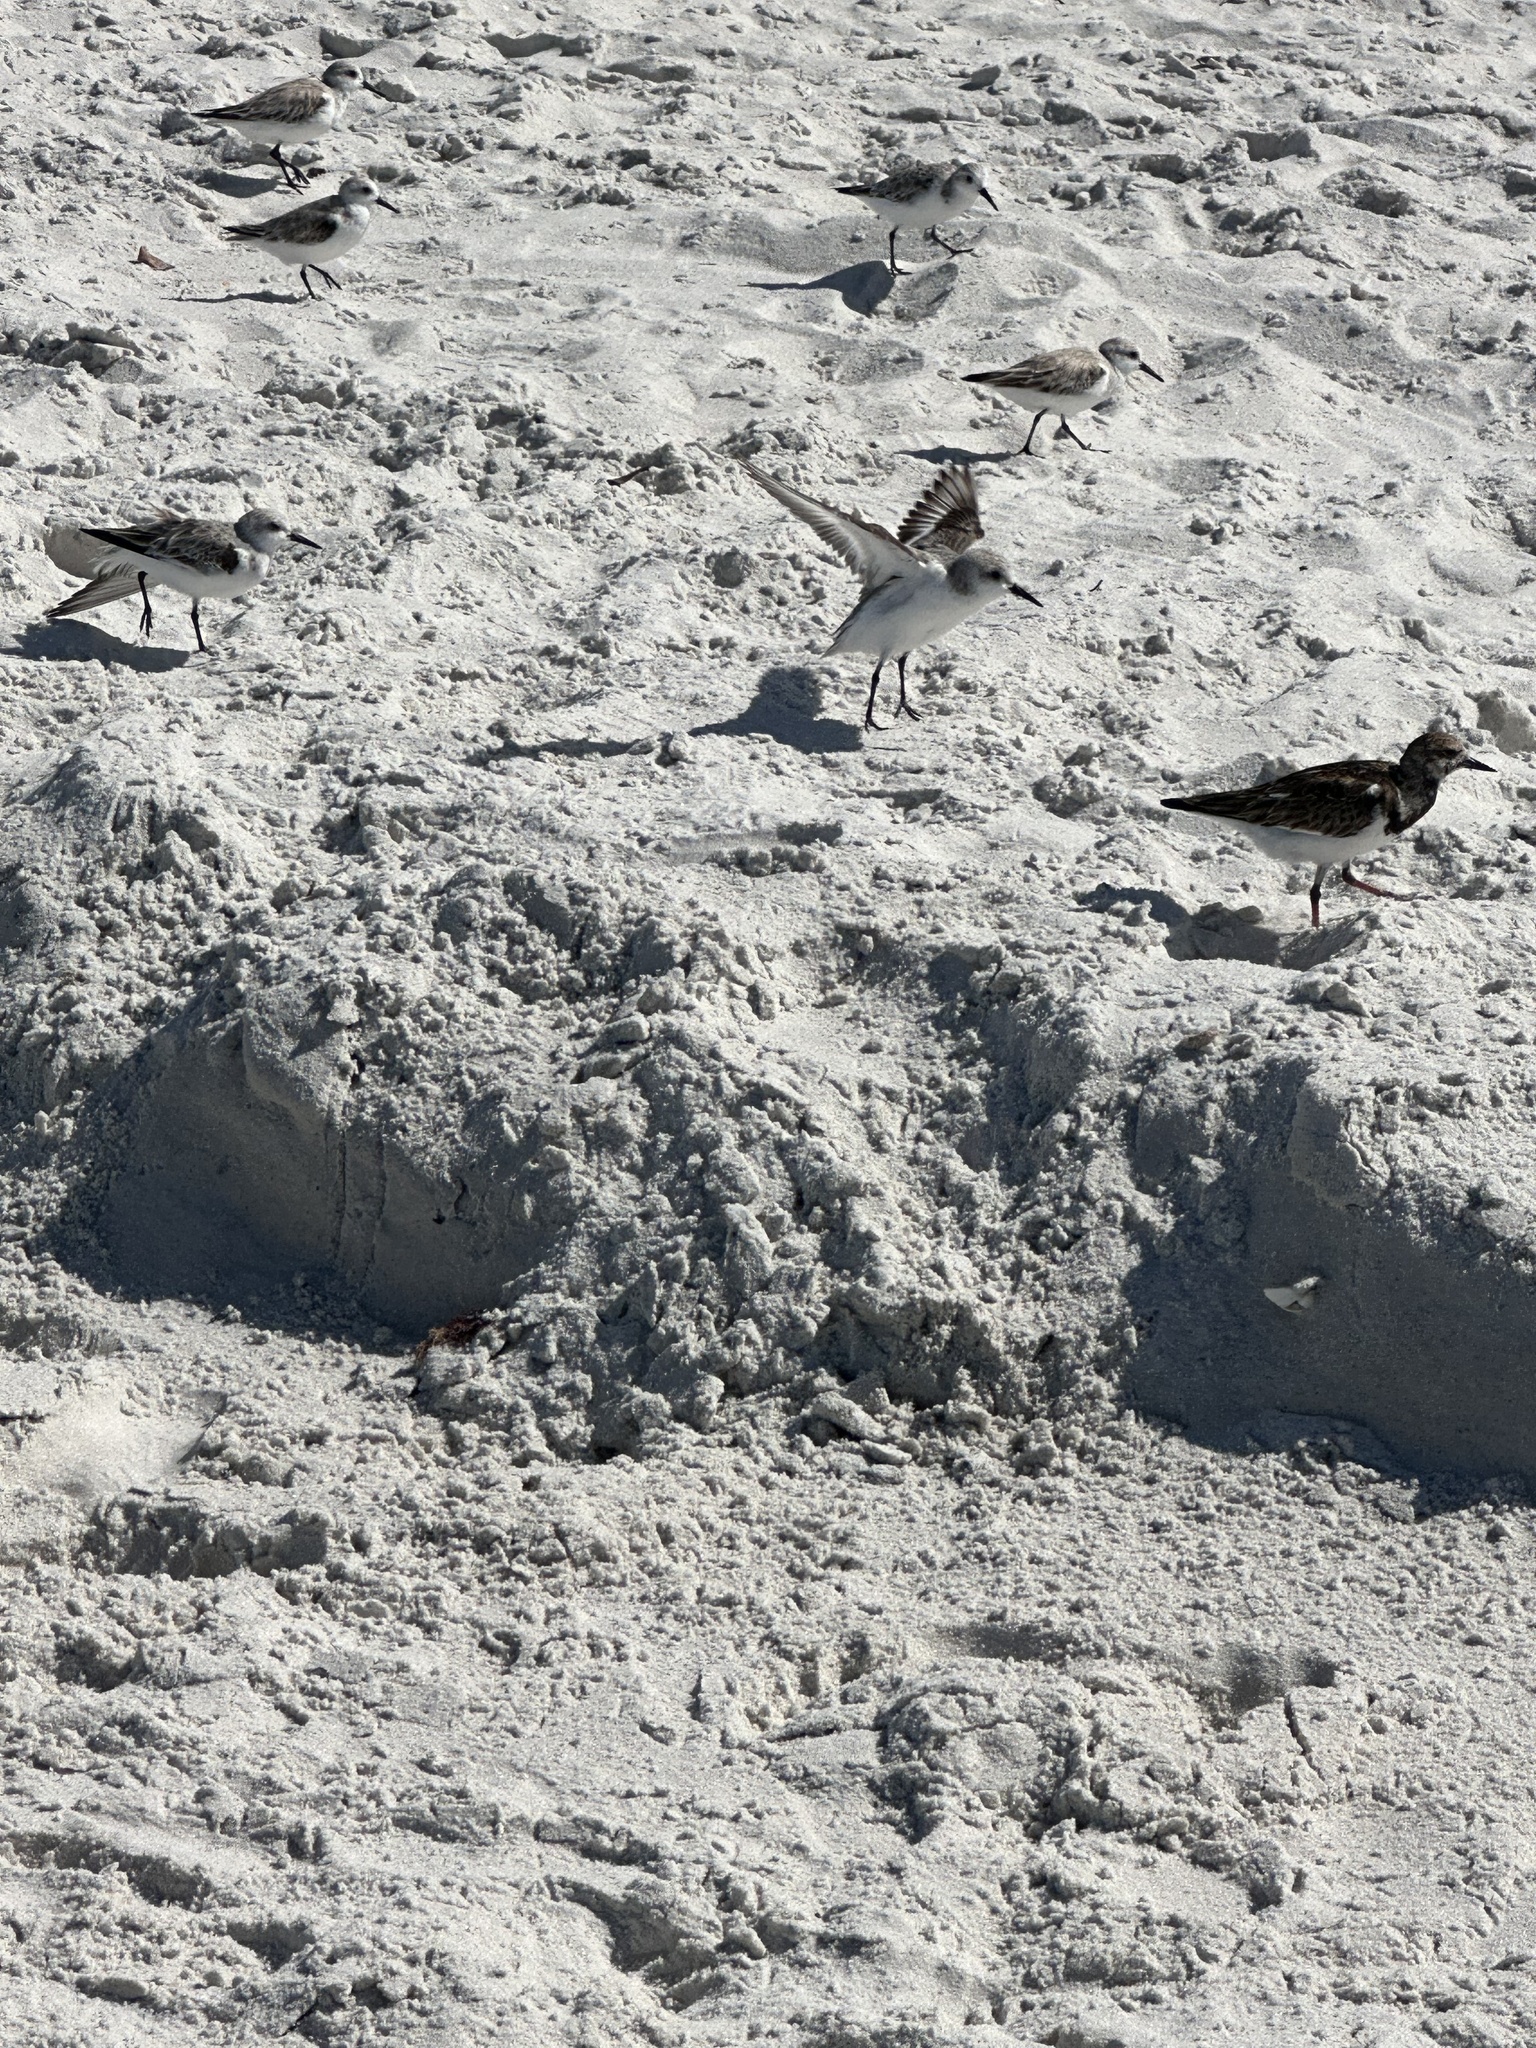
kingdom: Animalia
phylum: Chordata
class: Aves
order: Charadriiformes
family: Scolopacidae
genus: Calidris
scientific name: Calidris alba
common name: Sanderling
